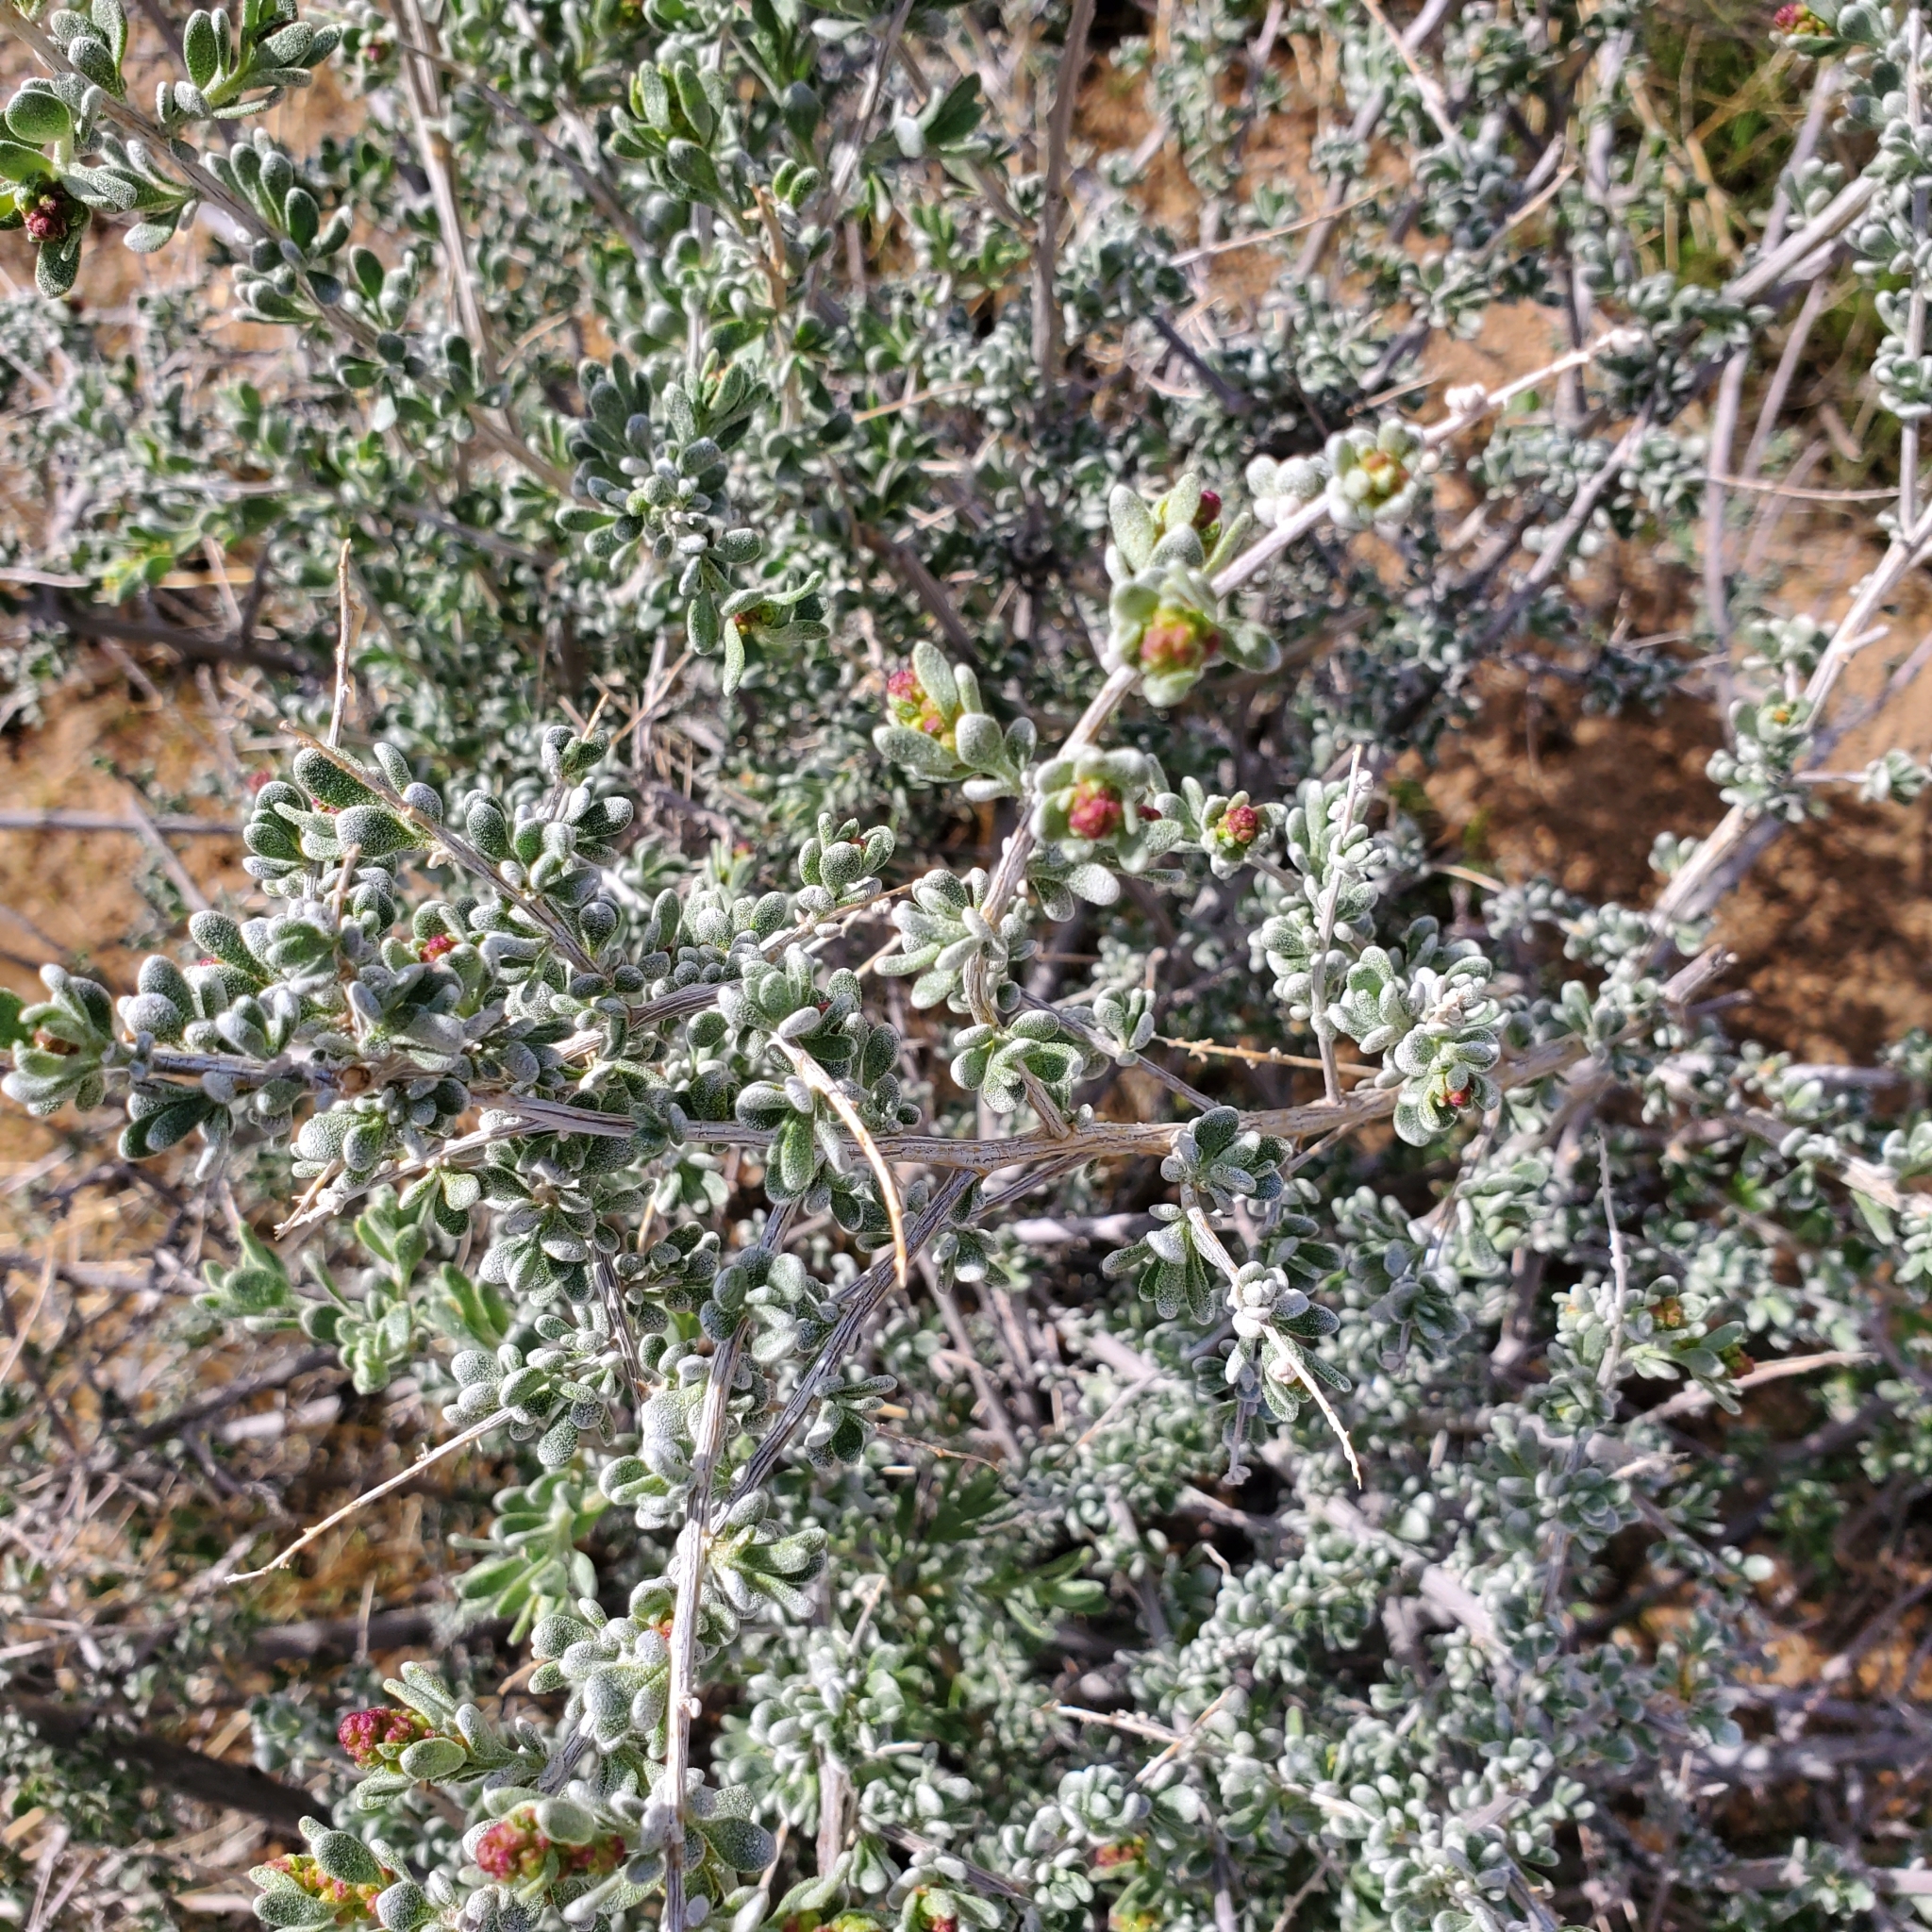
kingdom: Plantae
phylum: Tracheophyta
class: Magnoliopsida
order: Caryophyllales
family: Amaranthaceae
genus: Grayia
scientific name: Grayia spinosa
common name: Spiny hopsage
